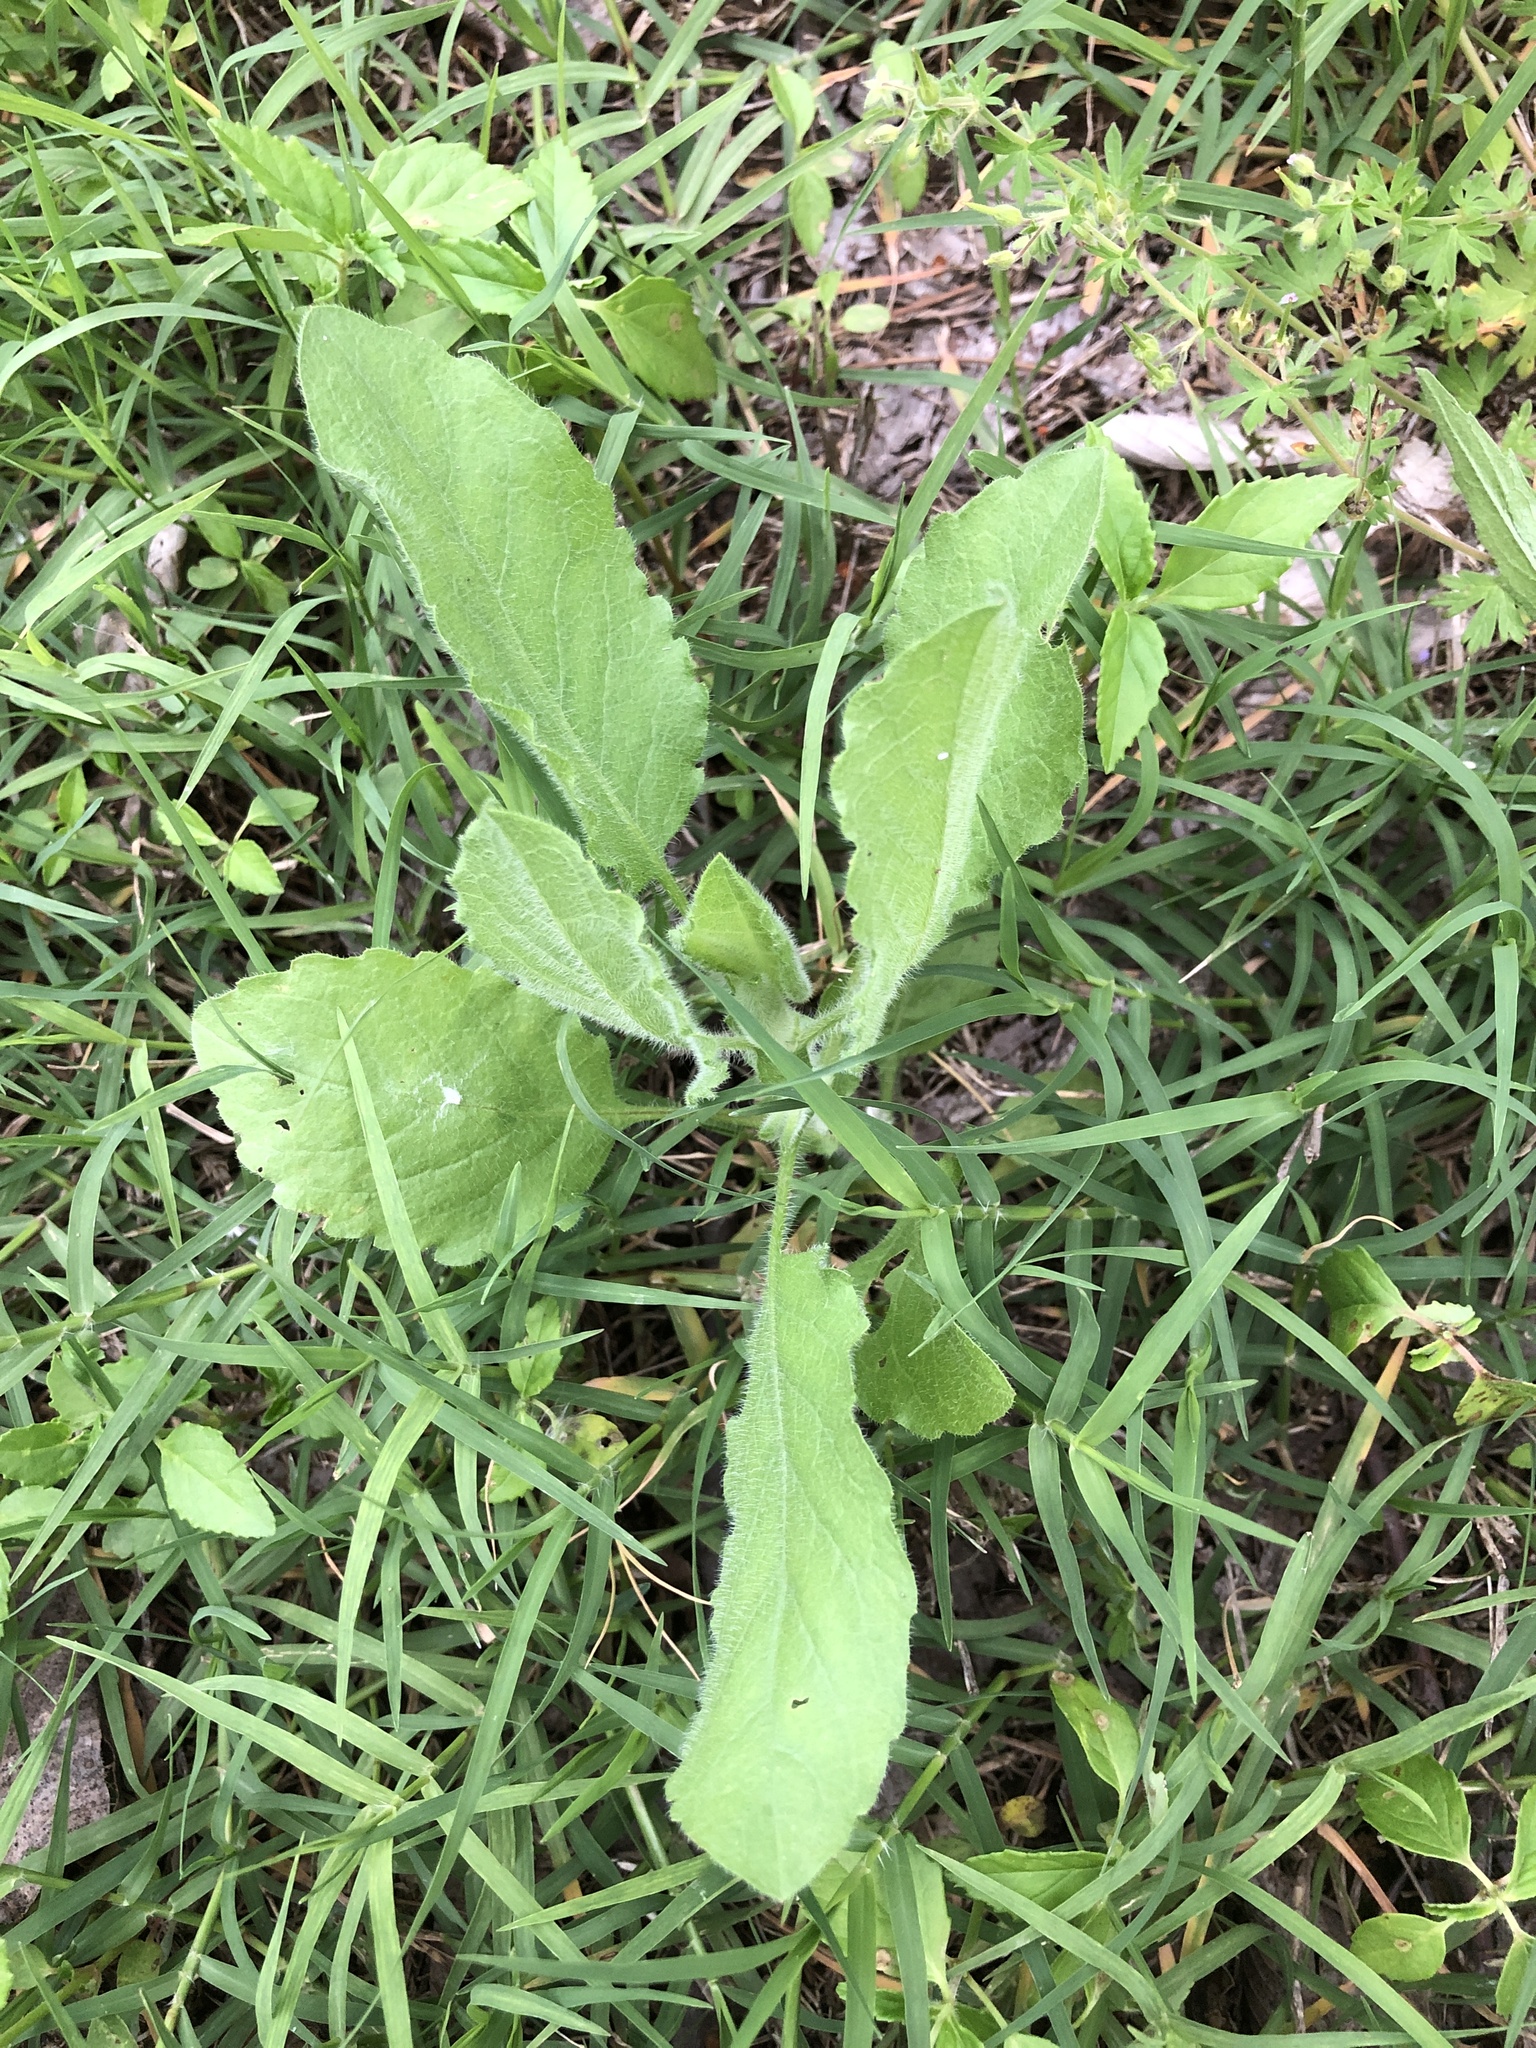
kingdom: Plantae
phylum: Tracheophyta
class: Magnoliopsida
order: Asterales
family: Asteraceae
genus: Heterotheca
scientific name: Heterotheca subaxillaris
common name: Camphorweed
